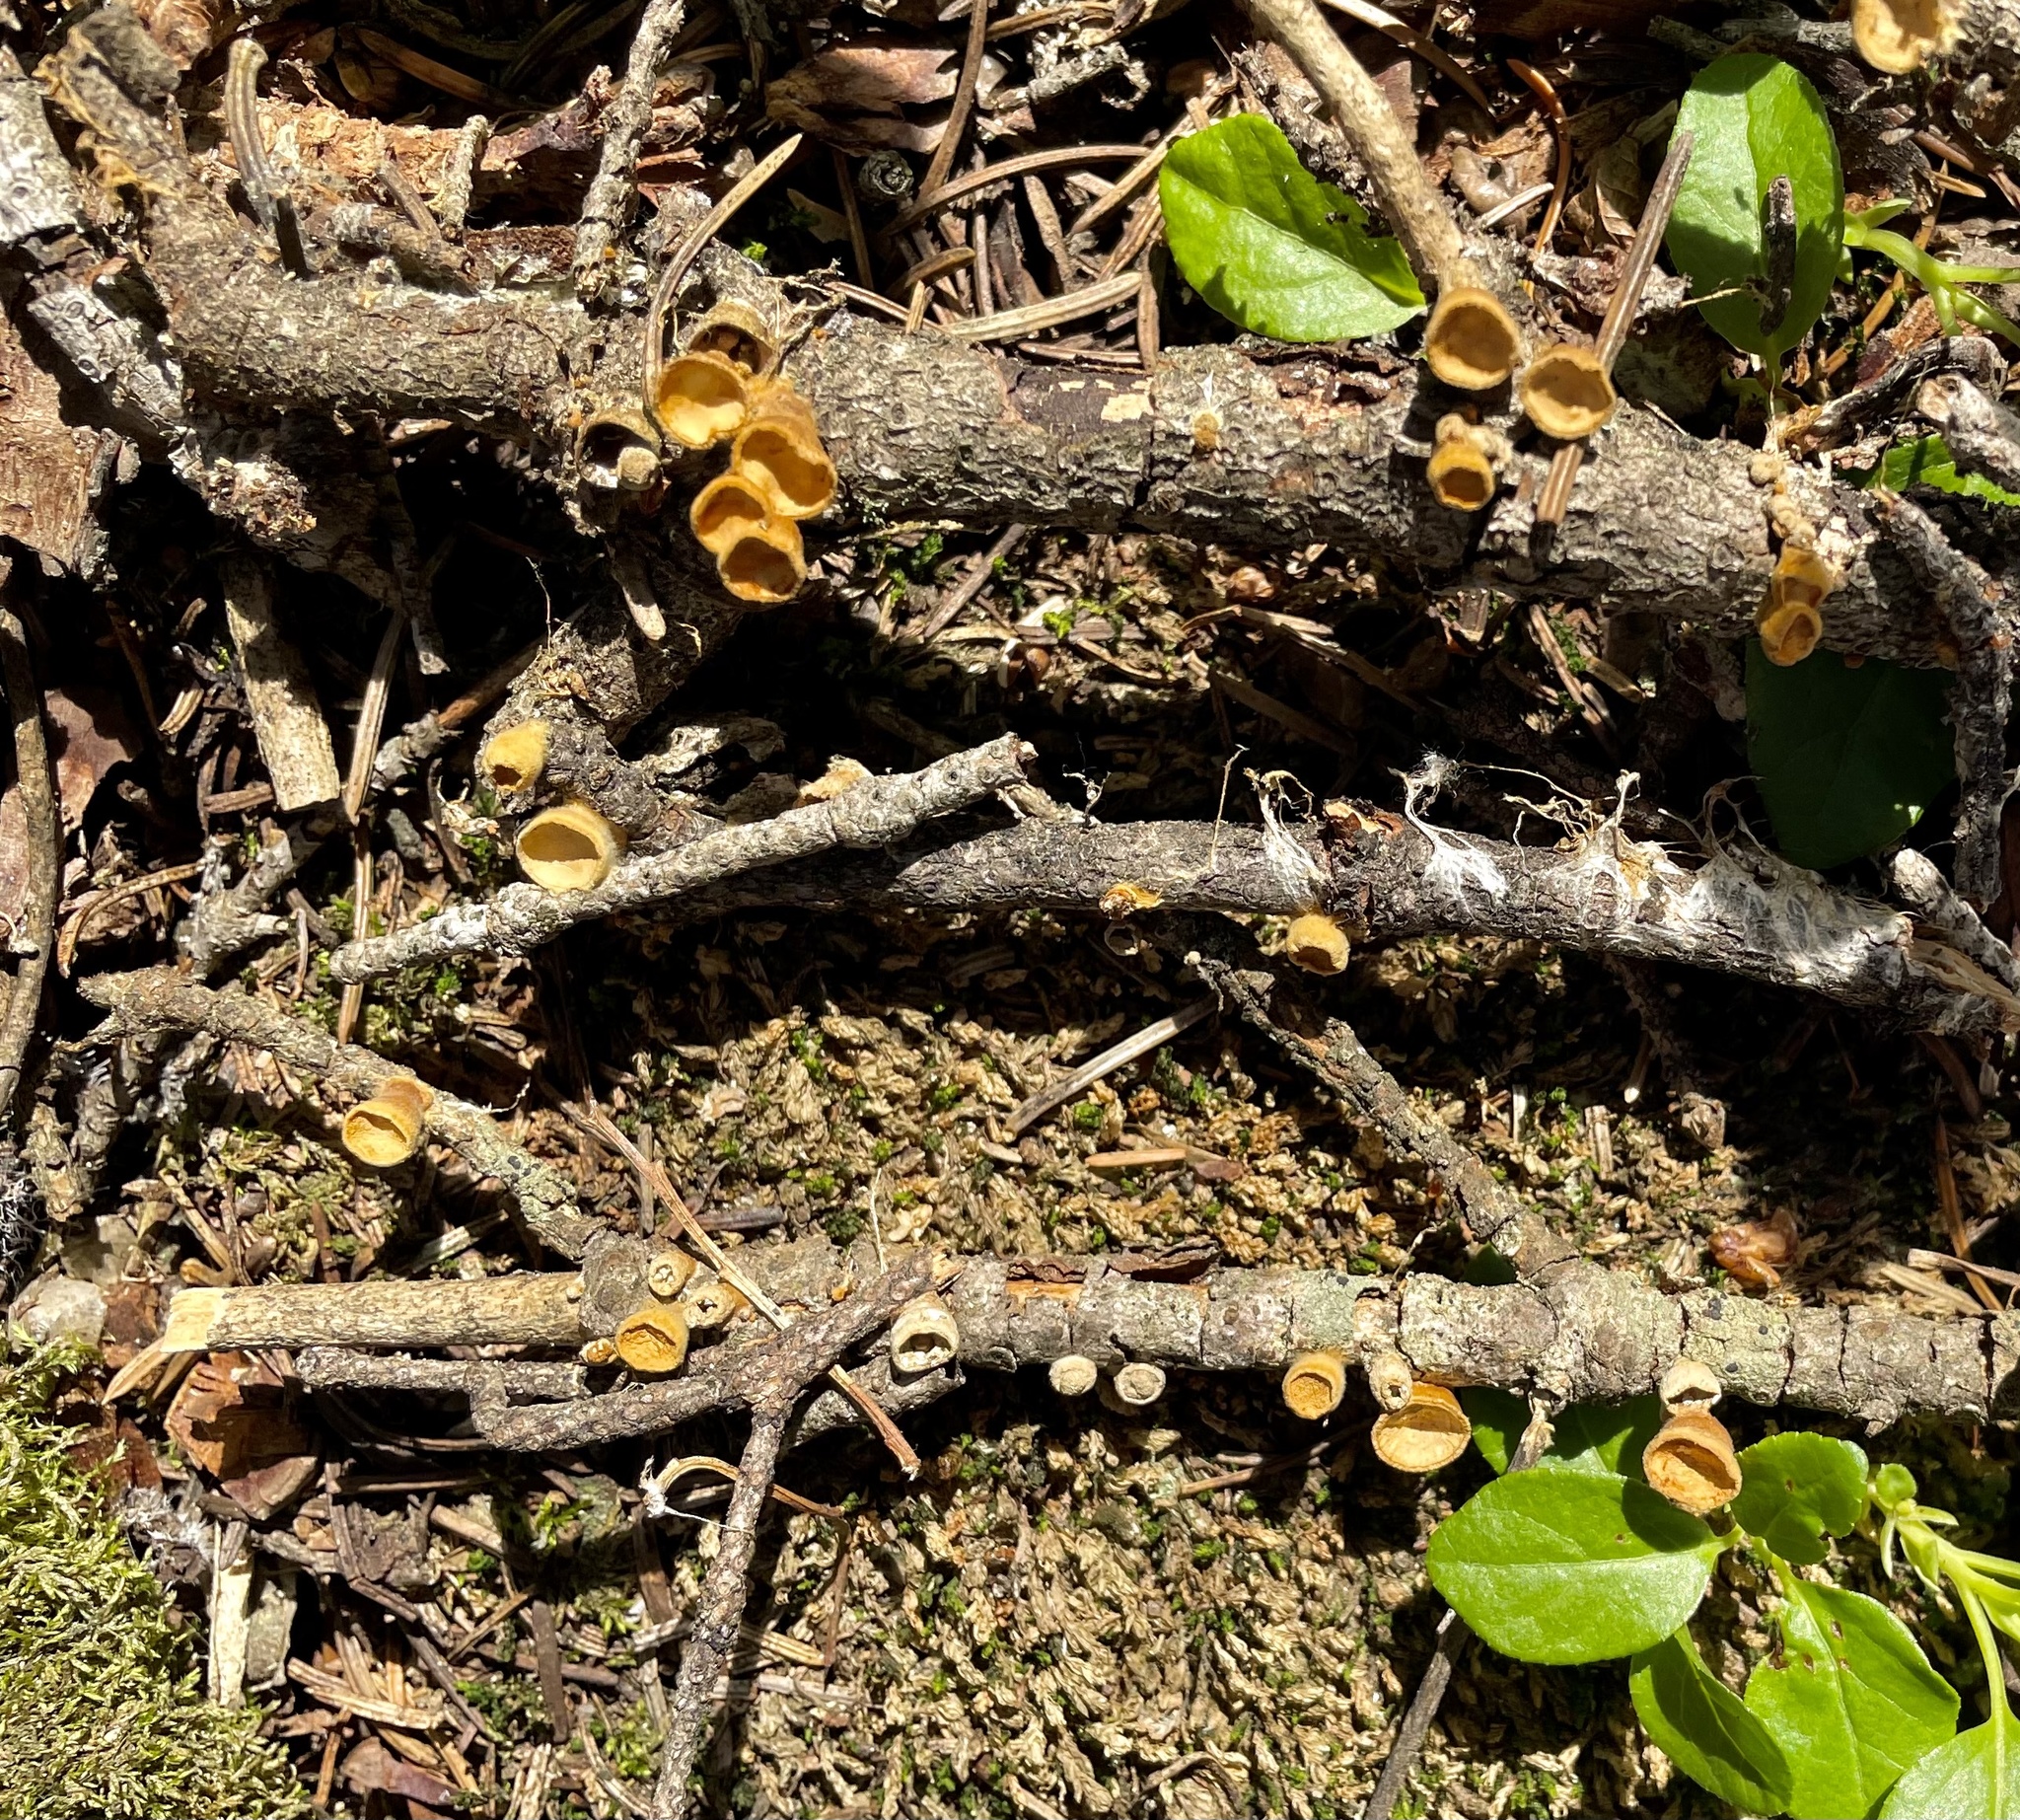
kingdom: Fungi
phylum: Basidiomycota
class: Agaricomycetes
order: Agaricales
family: Nidulariaceae
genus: Crucibulum
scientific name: Crucibulum laeve
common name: Common bird's nest
